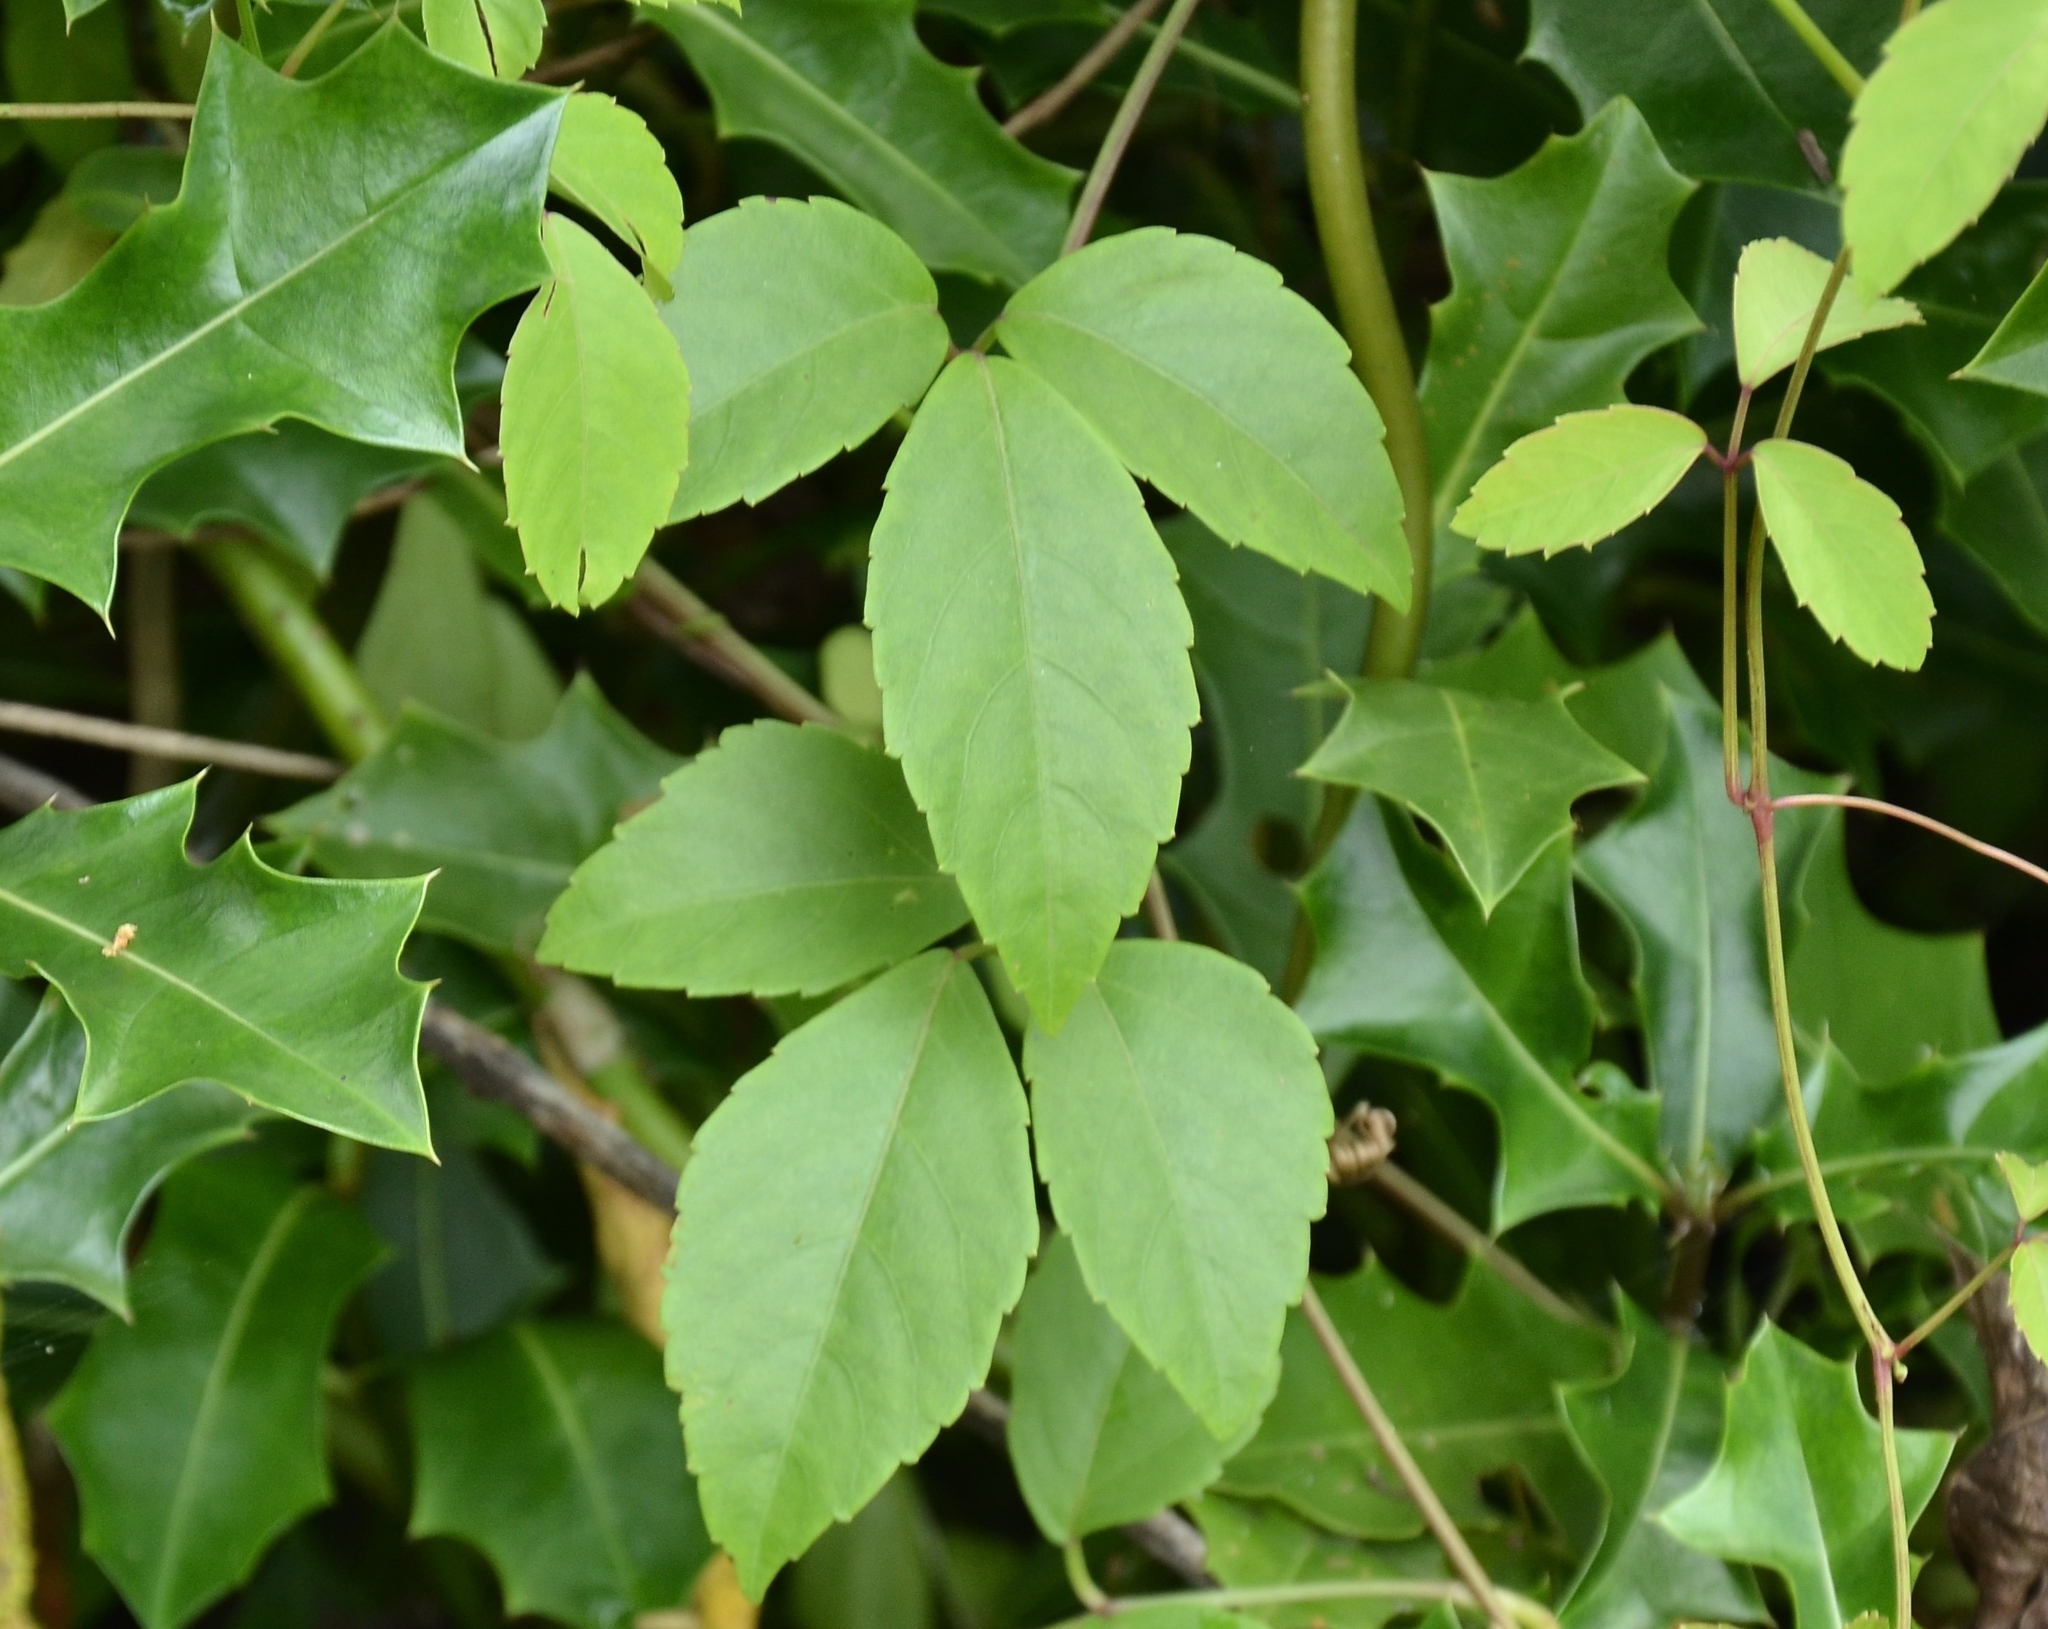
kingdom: Plantae
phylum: Tracheophyta
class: Magnoliopsida
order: Vitales
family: Vitaceae
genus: Causonis
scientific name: Causonis trifolia
